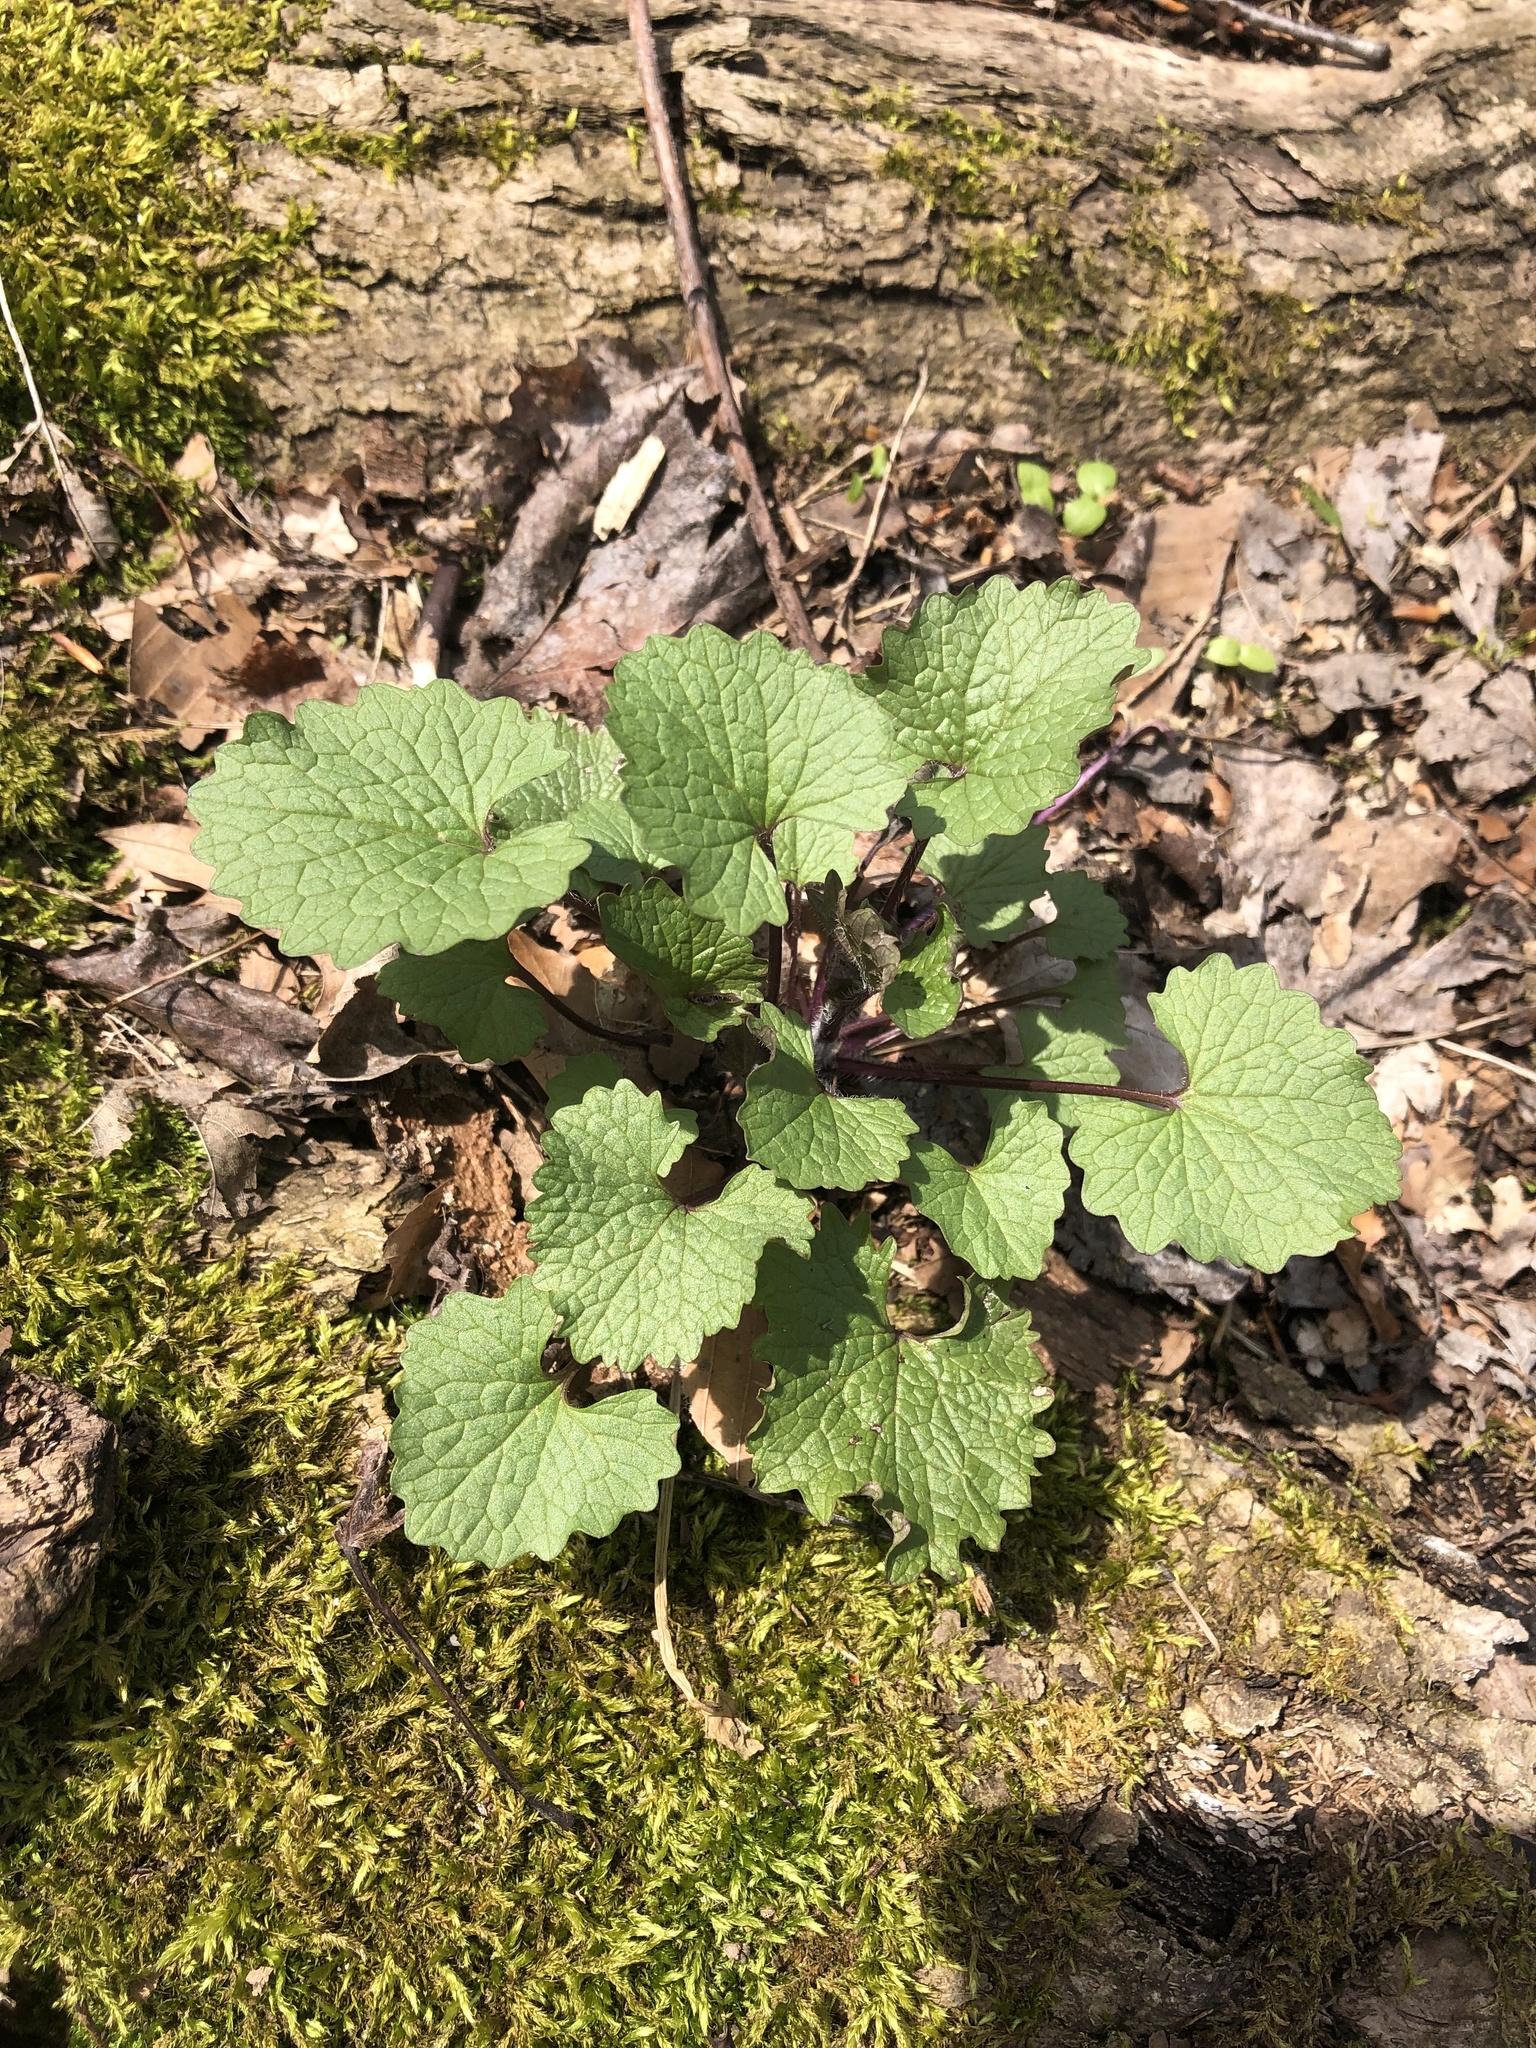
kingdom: Plantae
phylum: Tracheophyta
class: Magnoliopsida
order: Brassicales
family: Brassicaceae
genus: Alliaria
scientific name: Alliaria petiolata
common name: Garlic mustard
